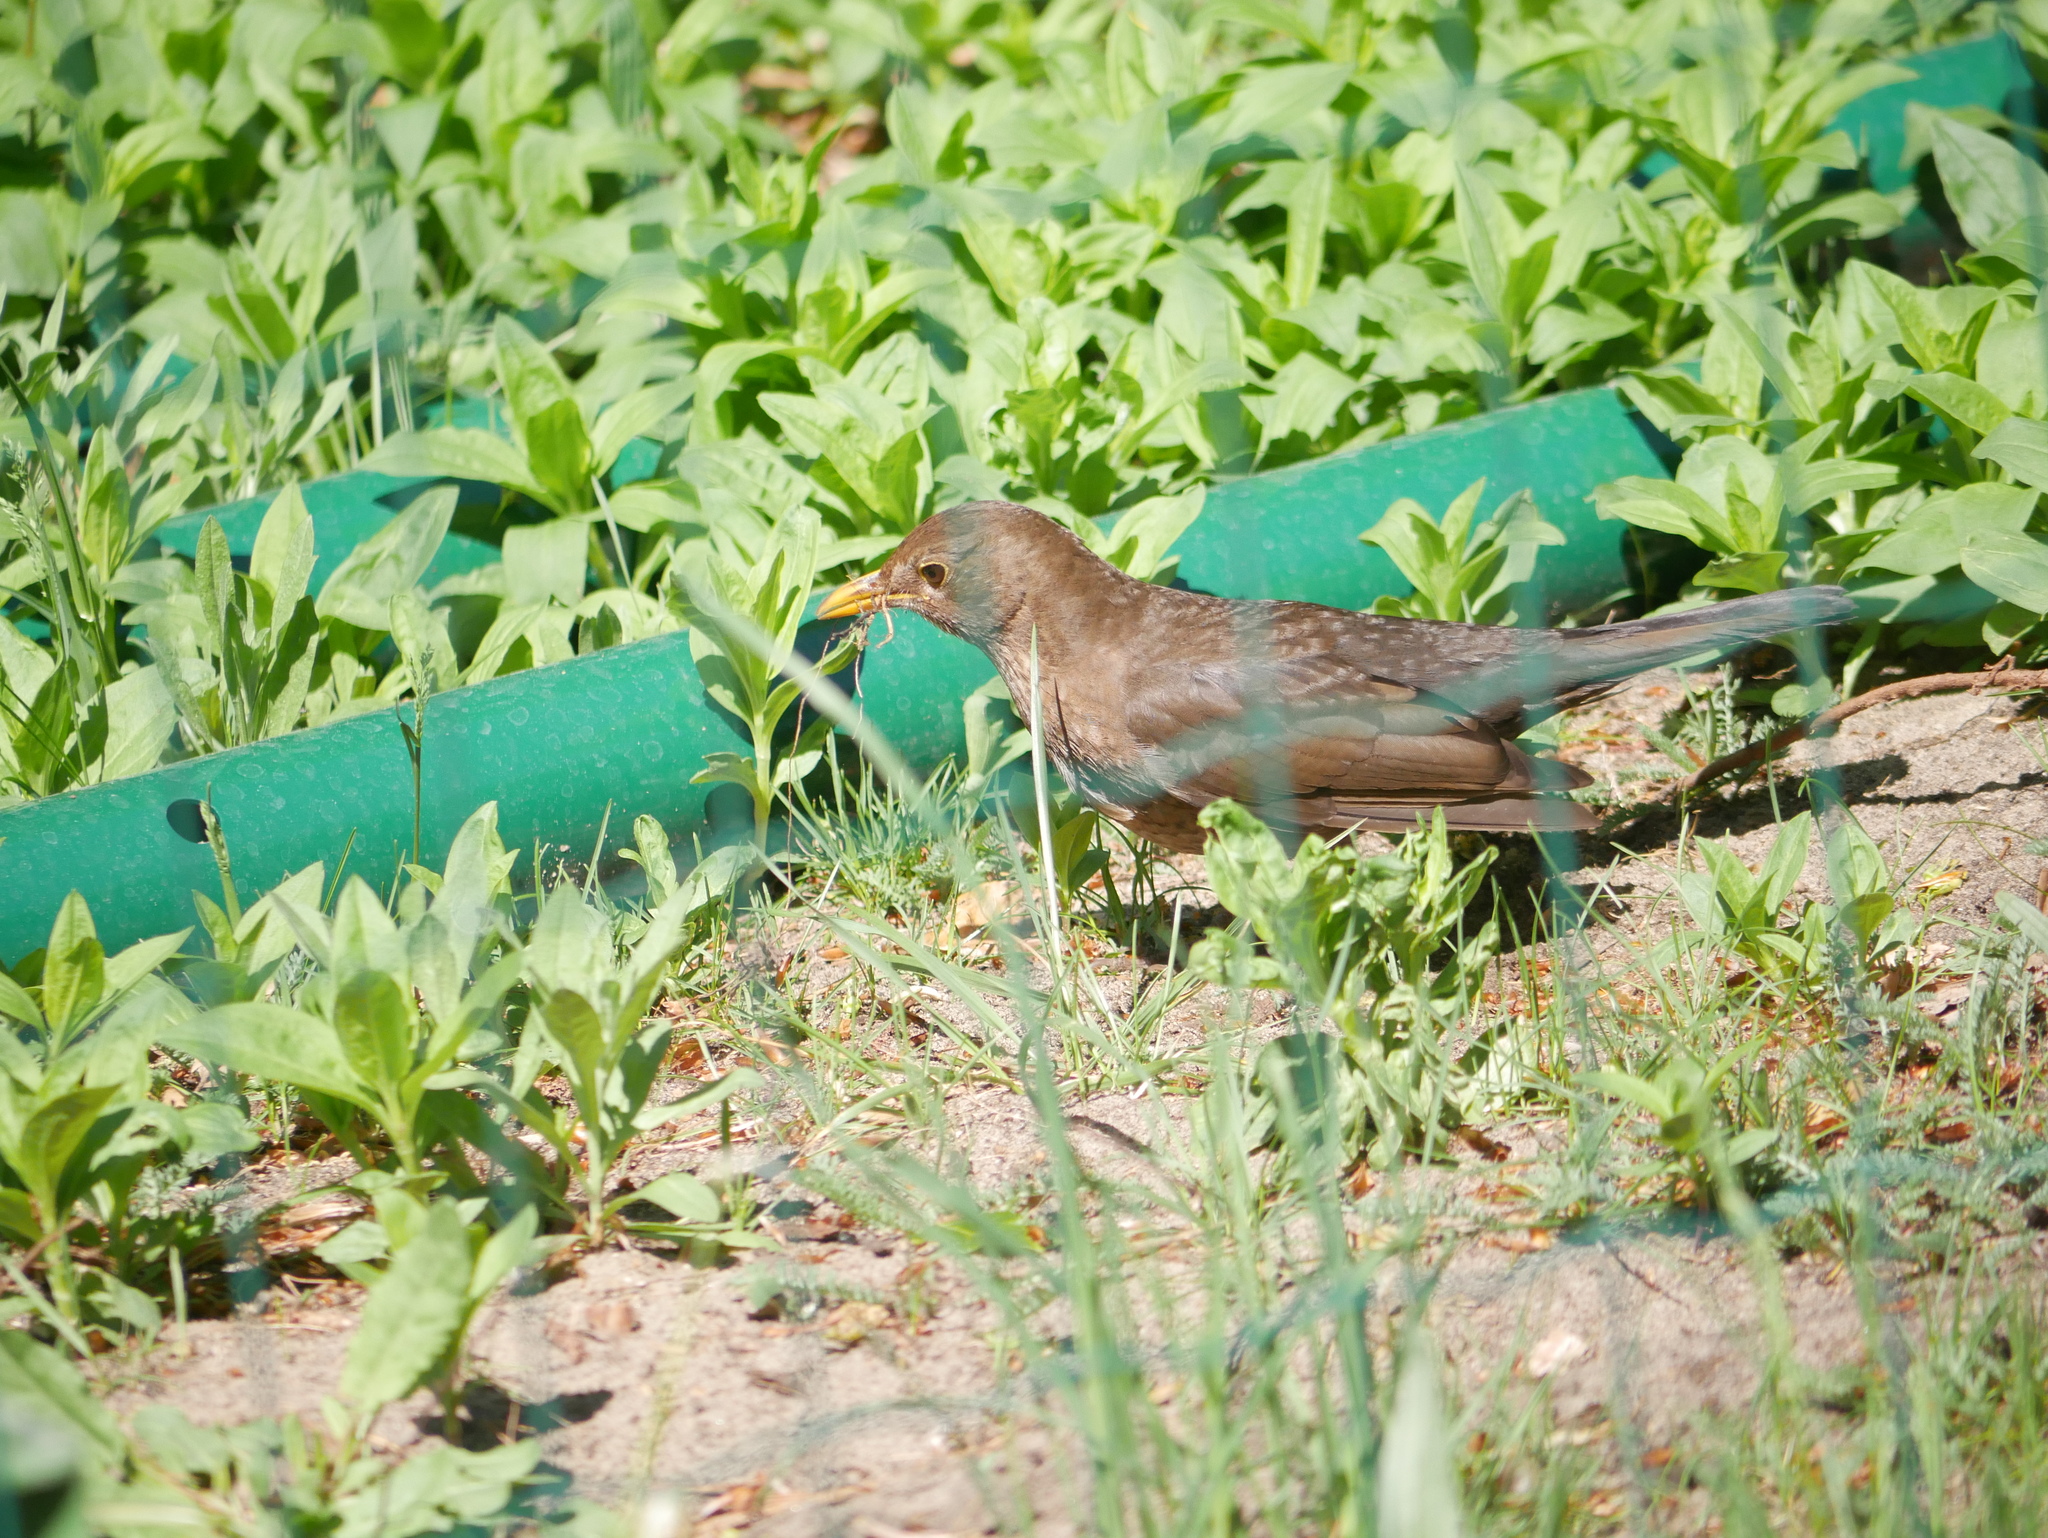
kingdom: Animalia
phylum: Chordata
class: Aves
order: Passeriformes
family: Turdidae
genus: Turdus
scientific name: Turdus merula
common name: Common blackbird
